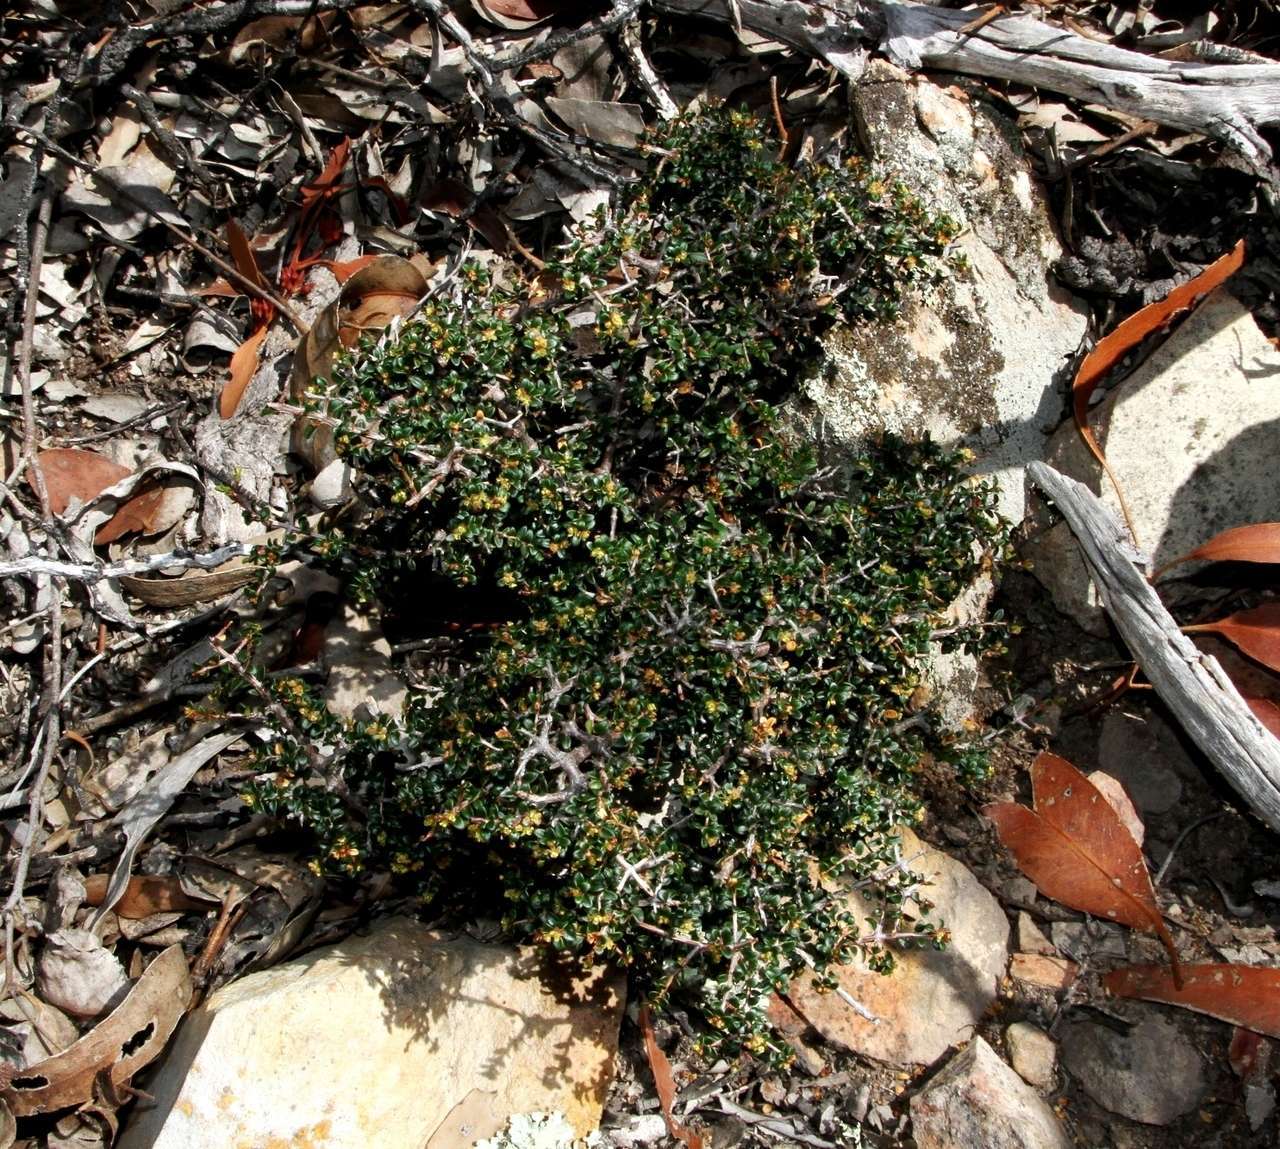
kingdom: Plantae
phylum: Tracheophyta
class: Magnoliopsida
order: Malpighiales
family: Picrodendraceae
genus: Pseudanthus
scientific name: Pseudanthus orbicularis
